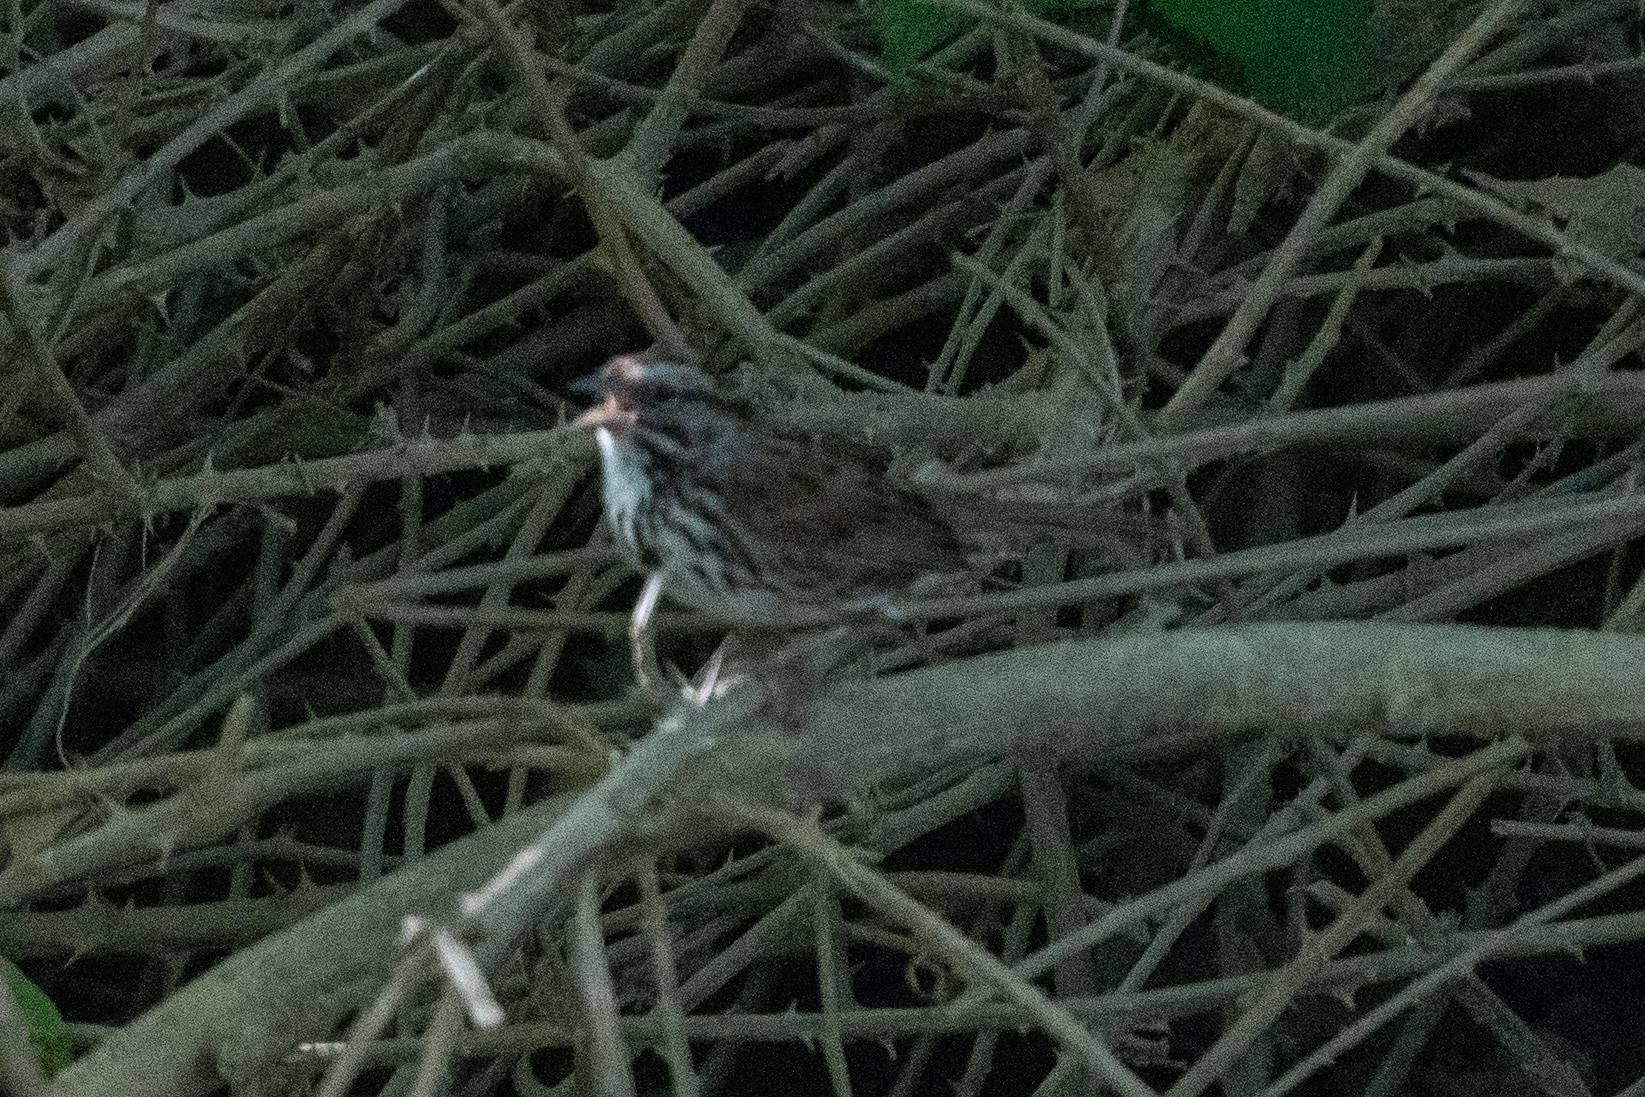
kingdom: Animalia
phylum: Chordata
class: Aves
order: Passeriformes
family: Passerellidae
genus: Melospiza
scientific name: Melospiza melodia
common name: Song sparrow
